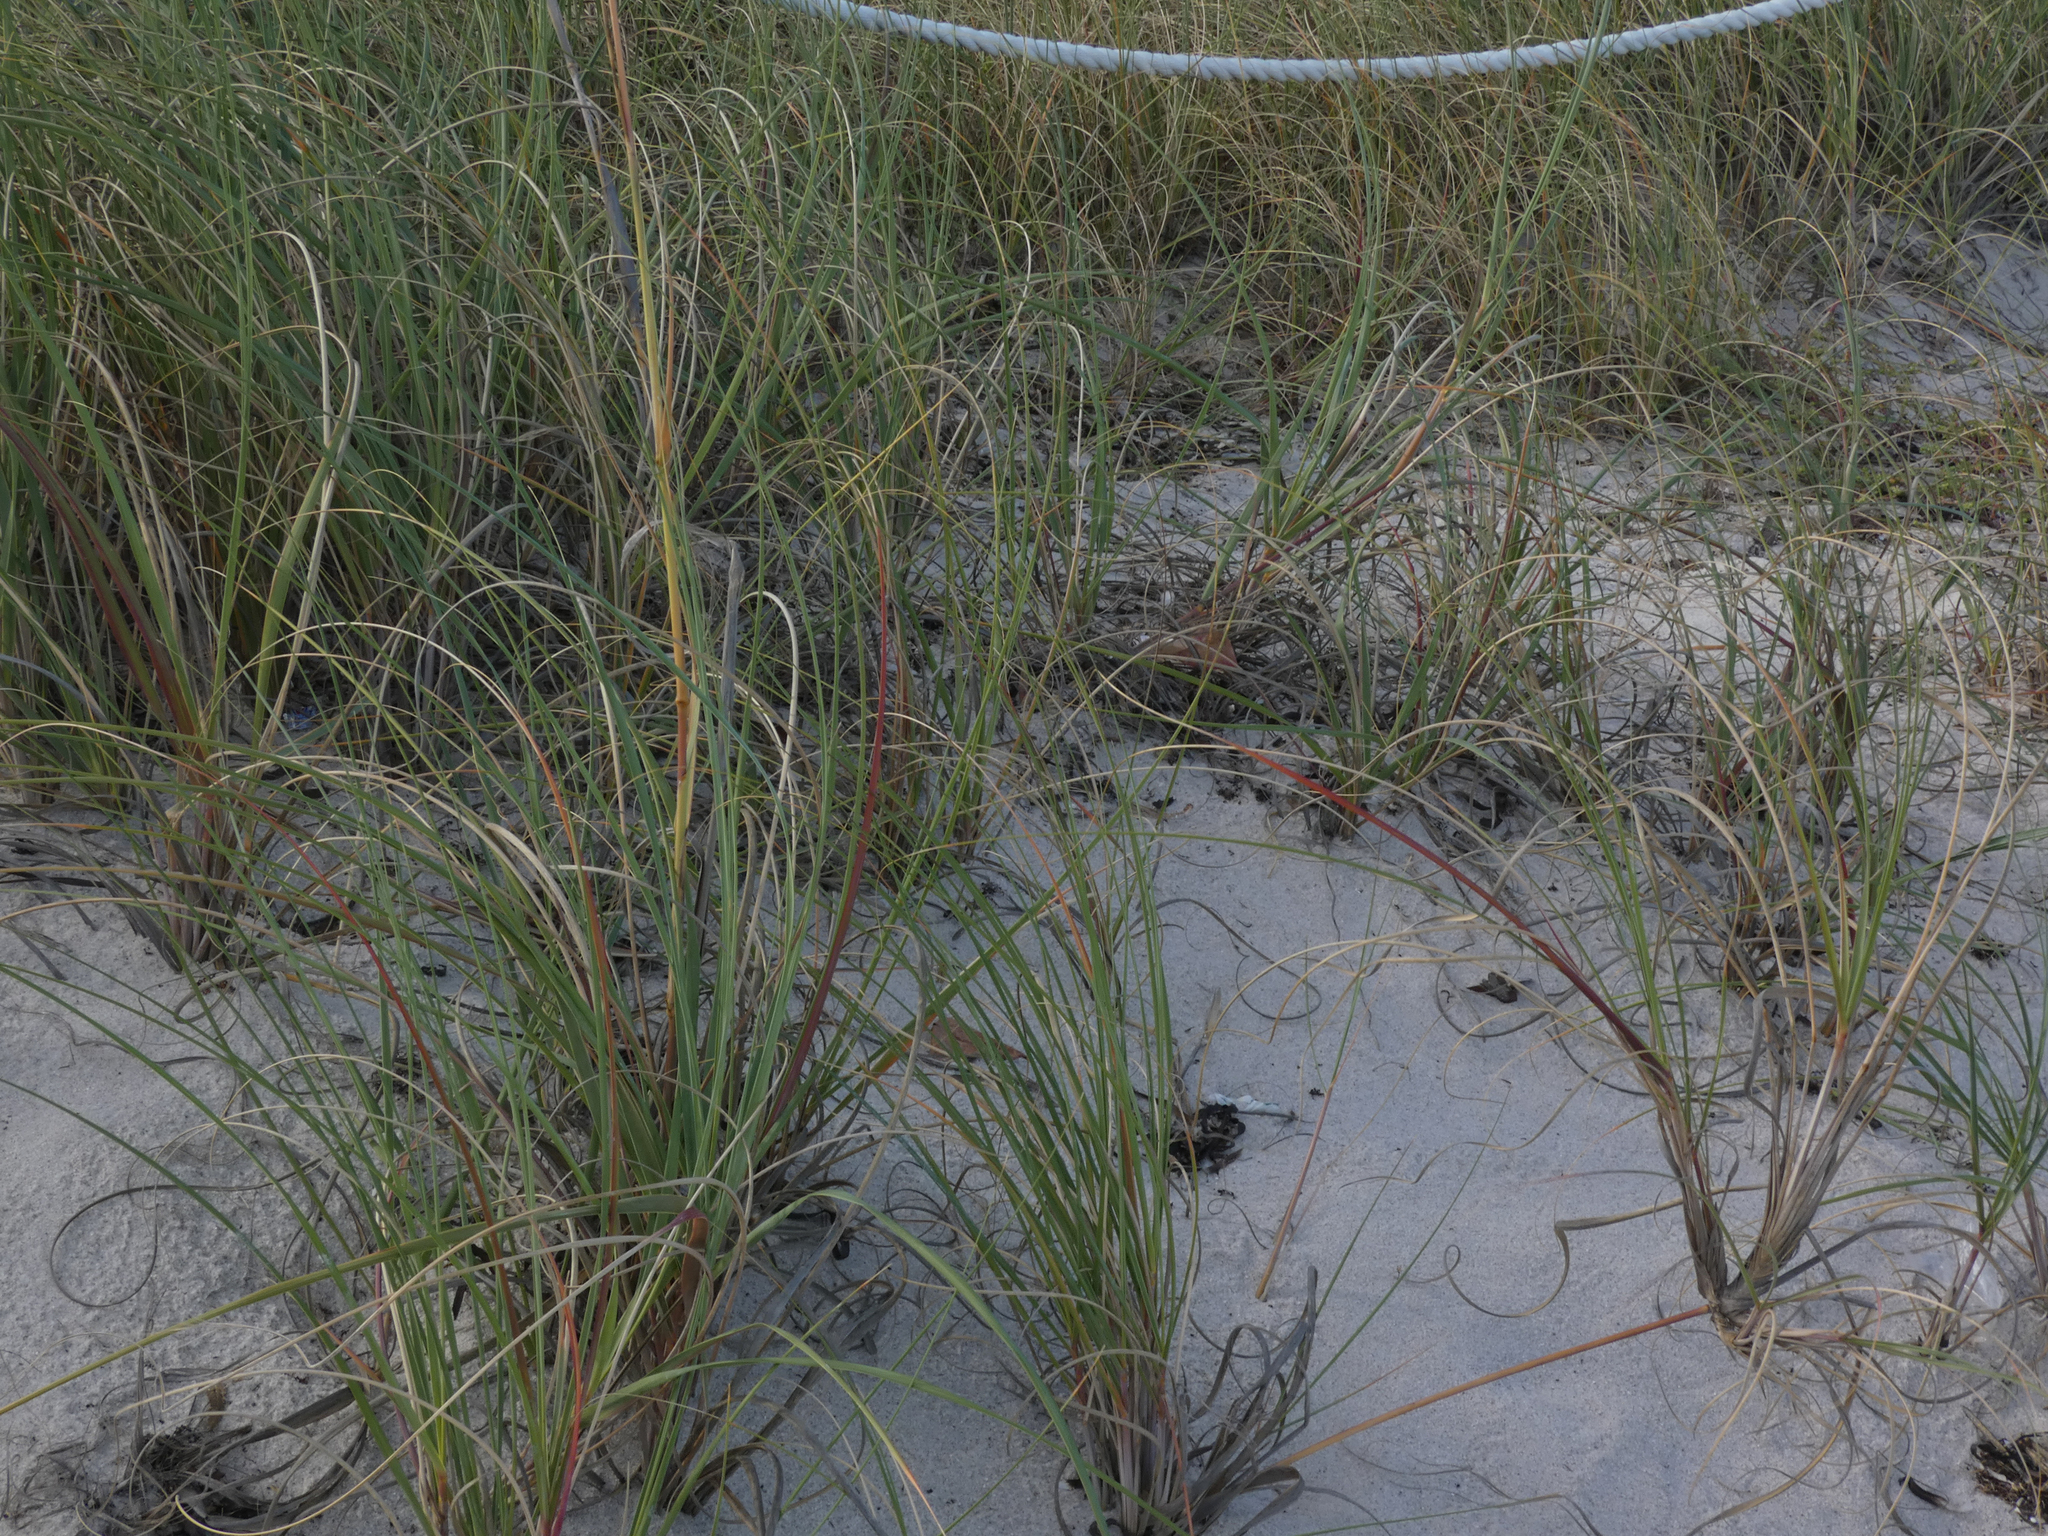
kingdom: Plantae
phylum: Tracheophyta
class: Liliopsida
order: Poales
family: Poaceae
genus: Uniola
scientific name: Uniola paniculata
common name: Seaside-oats
